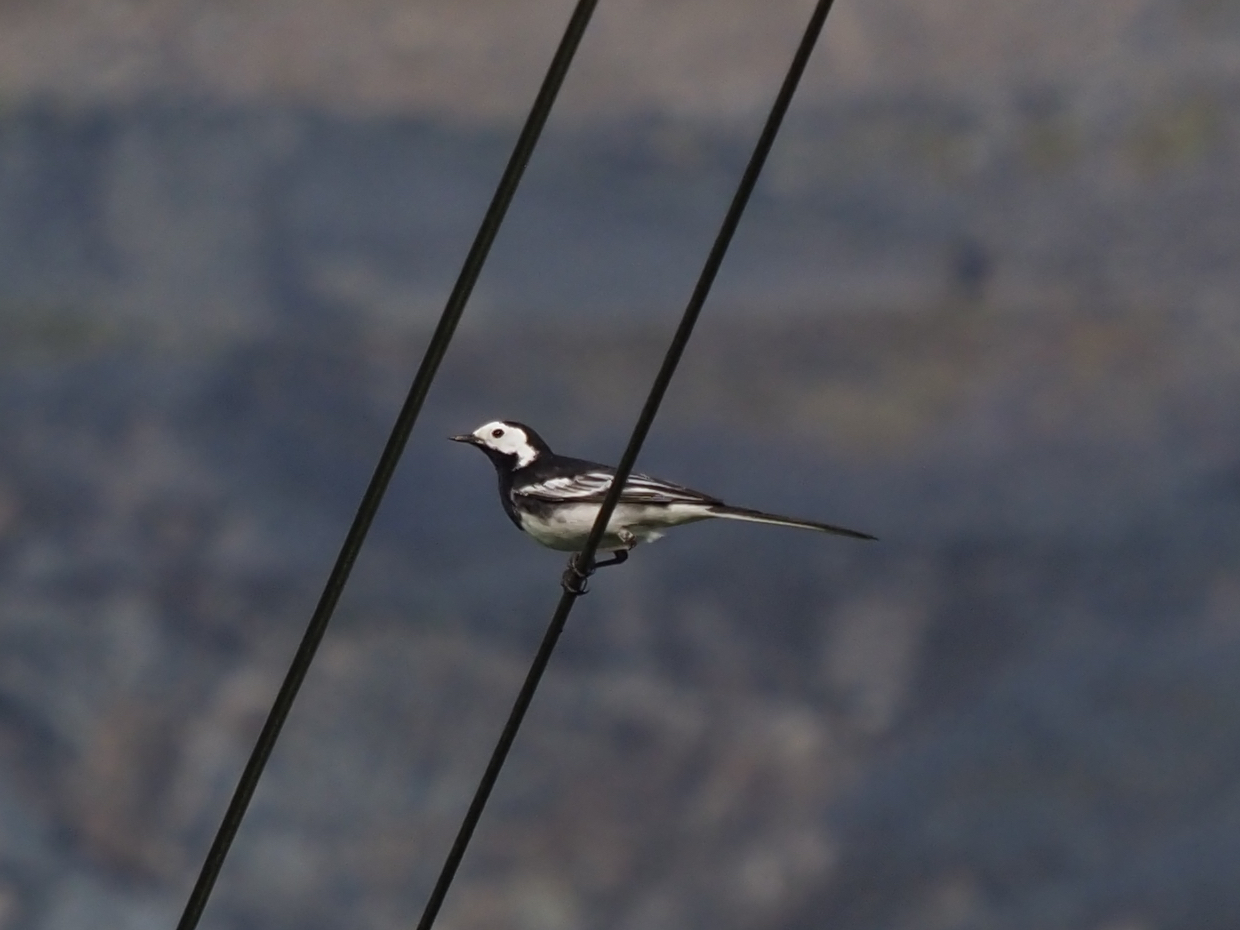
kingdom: Animalia
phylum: Chordata
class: Aves
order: Passeriformes
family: Motacillidae
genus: Motacilla
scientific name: Motacilla alba
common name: White wagtail
